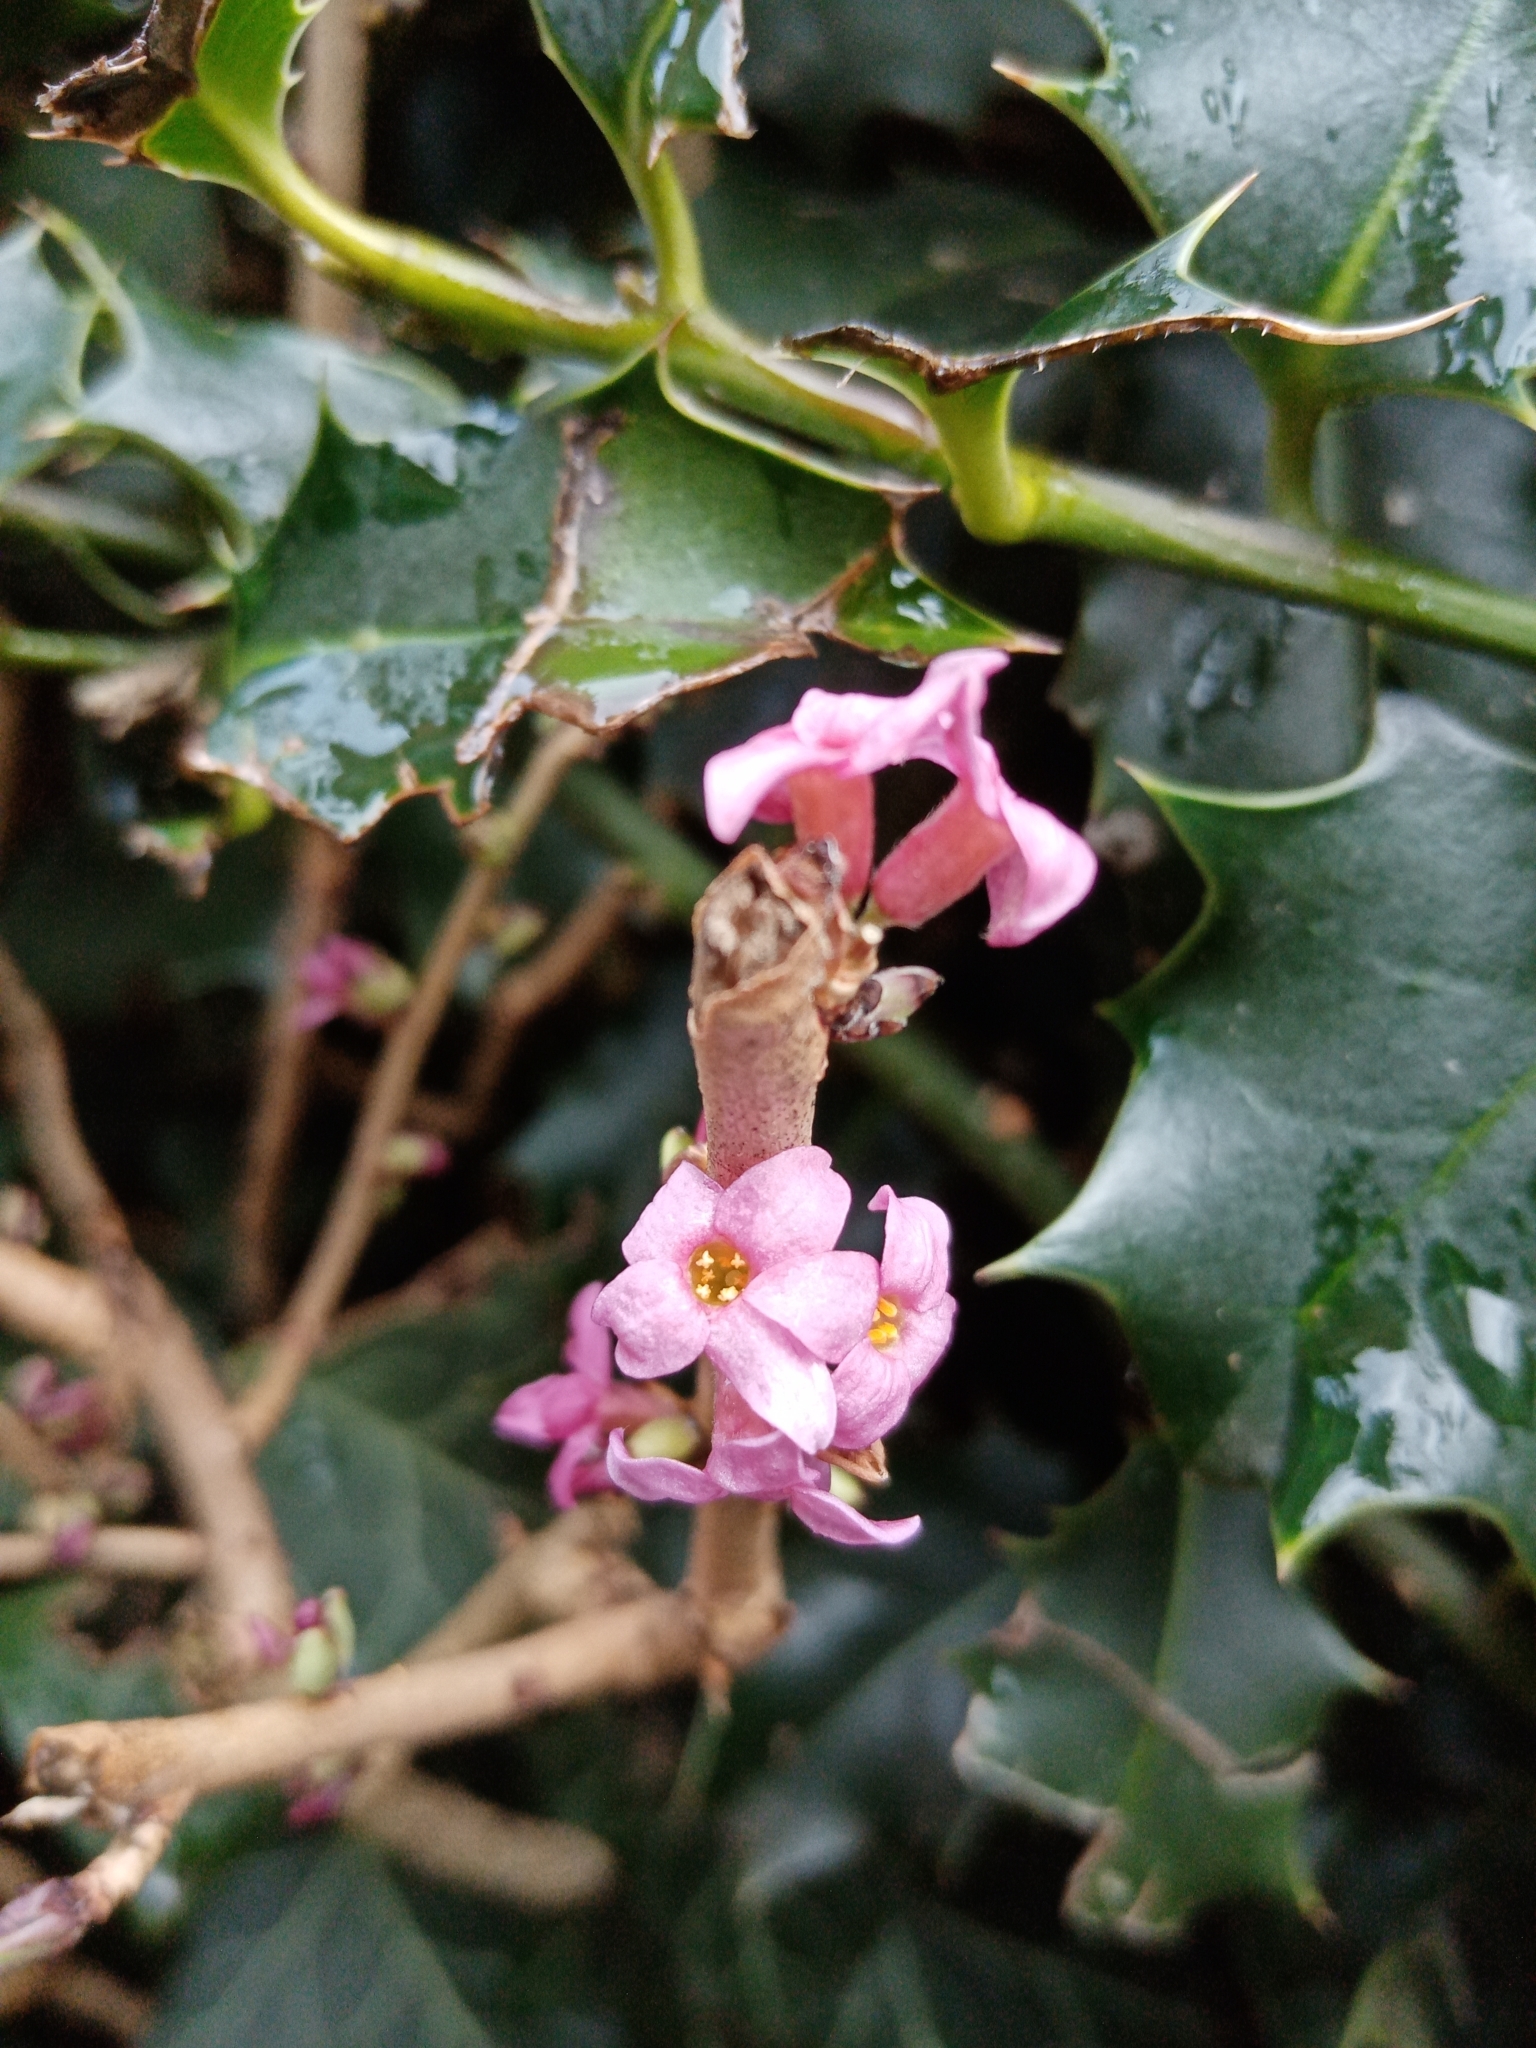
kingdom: Plantae
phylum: Tracheophyta
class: Magnoliopsida
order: Malvales
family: Thymelaeaceae
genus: Daphne
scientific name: Daphne mezereum
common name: Mezereon
